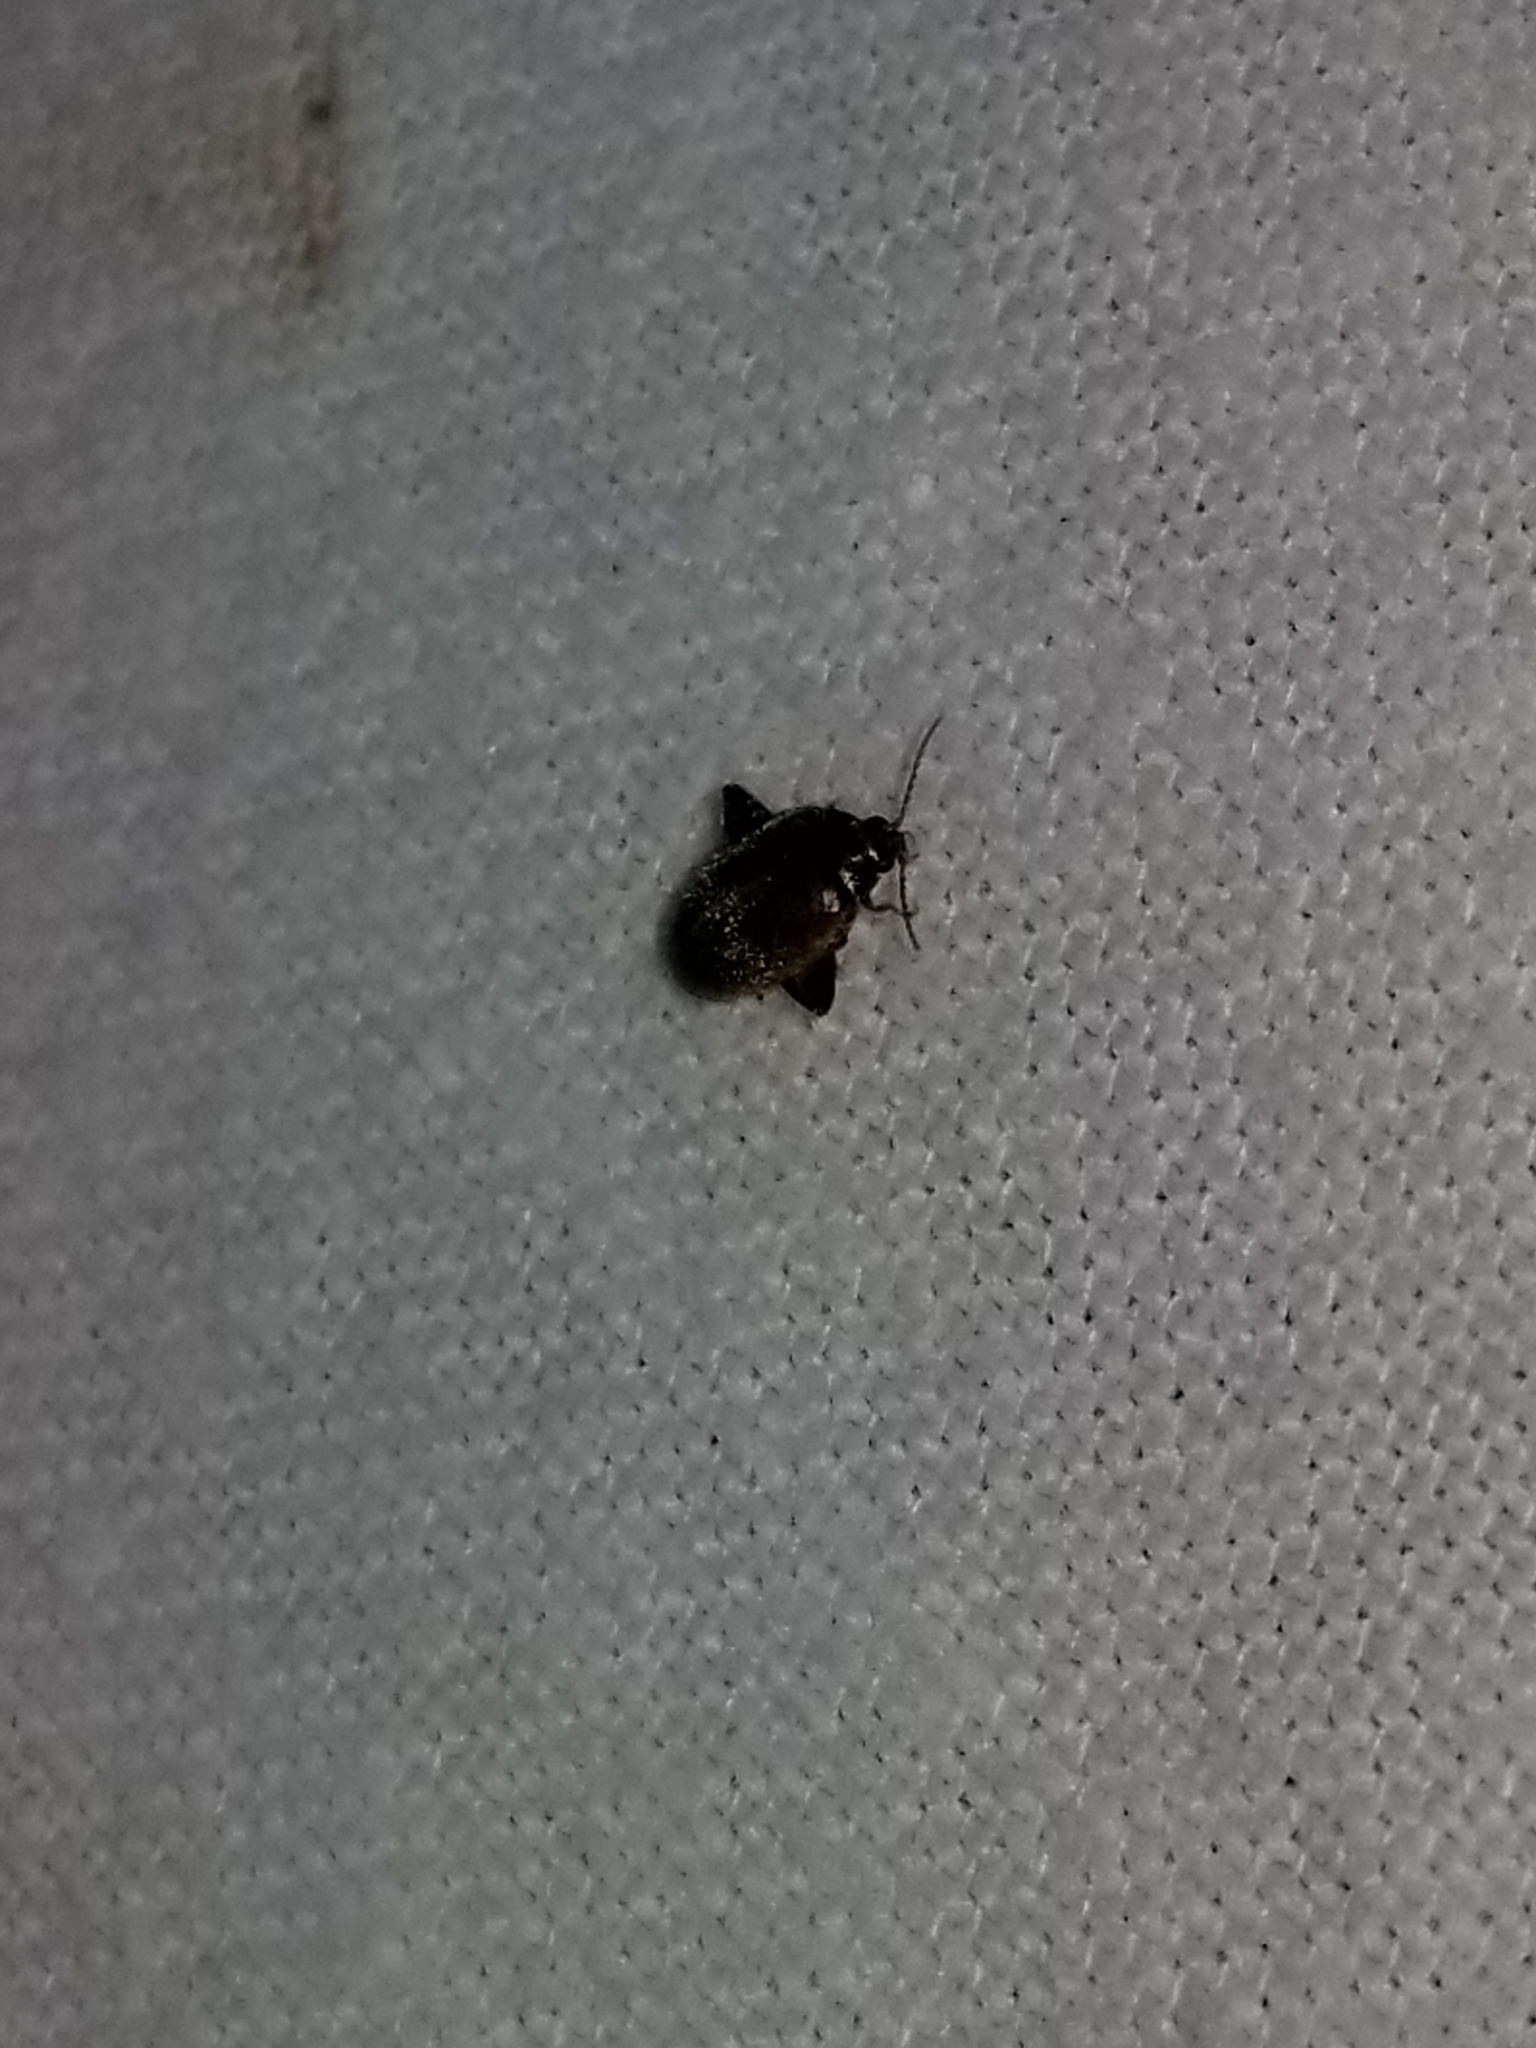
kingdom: Animalia
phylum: Arthropoda
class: Insecta
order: Coleoptera
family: Scirtidae
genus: Scirtes
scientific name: Scirtes tibialis
